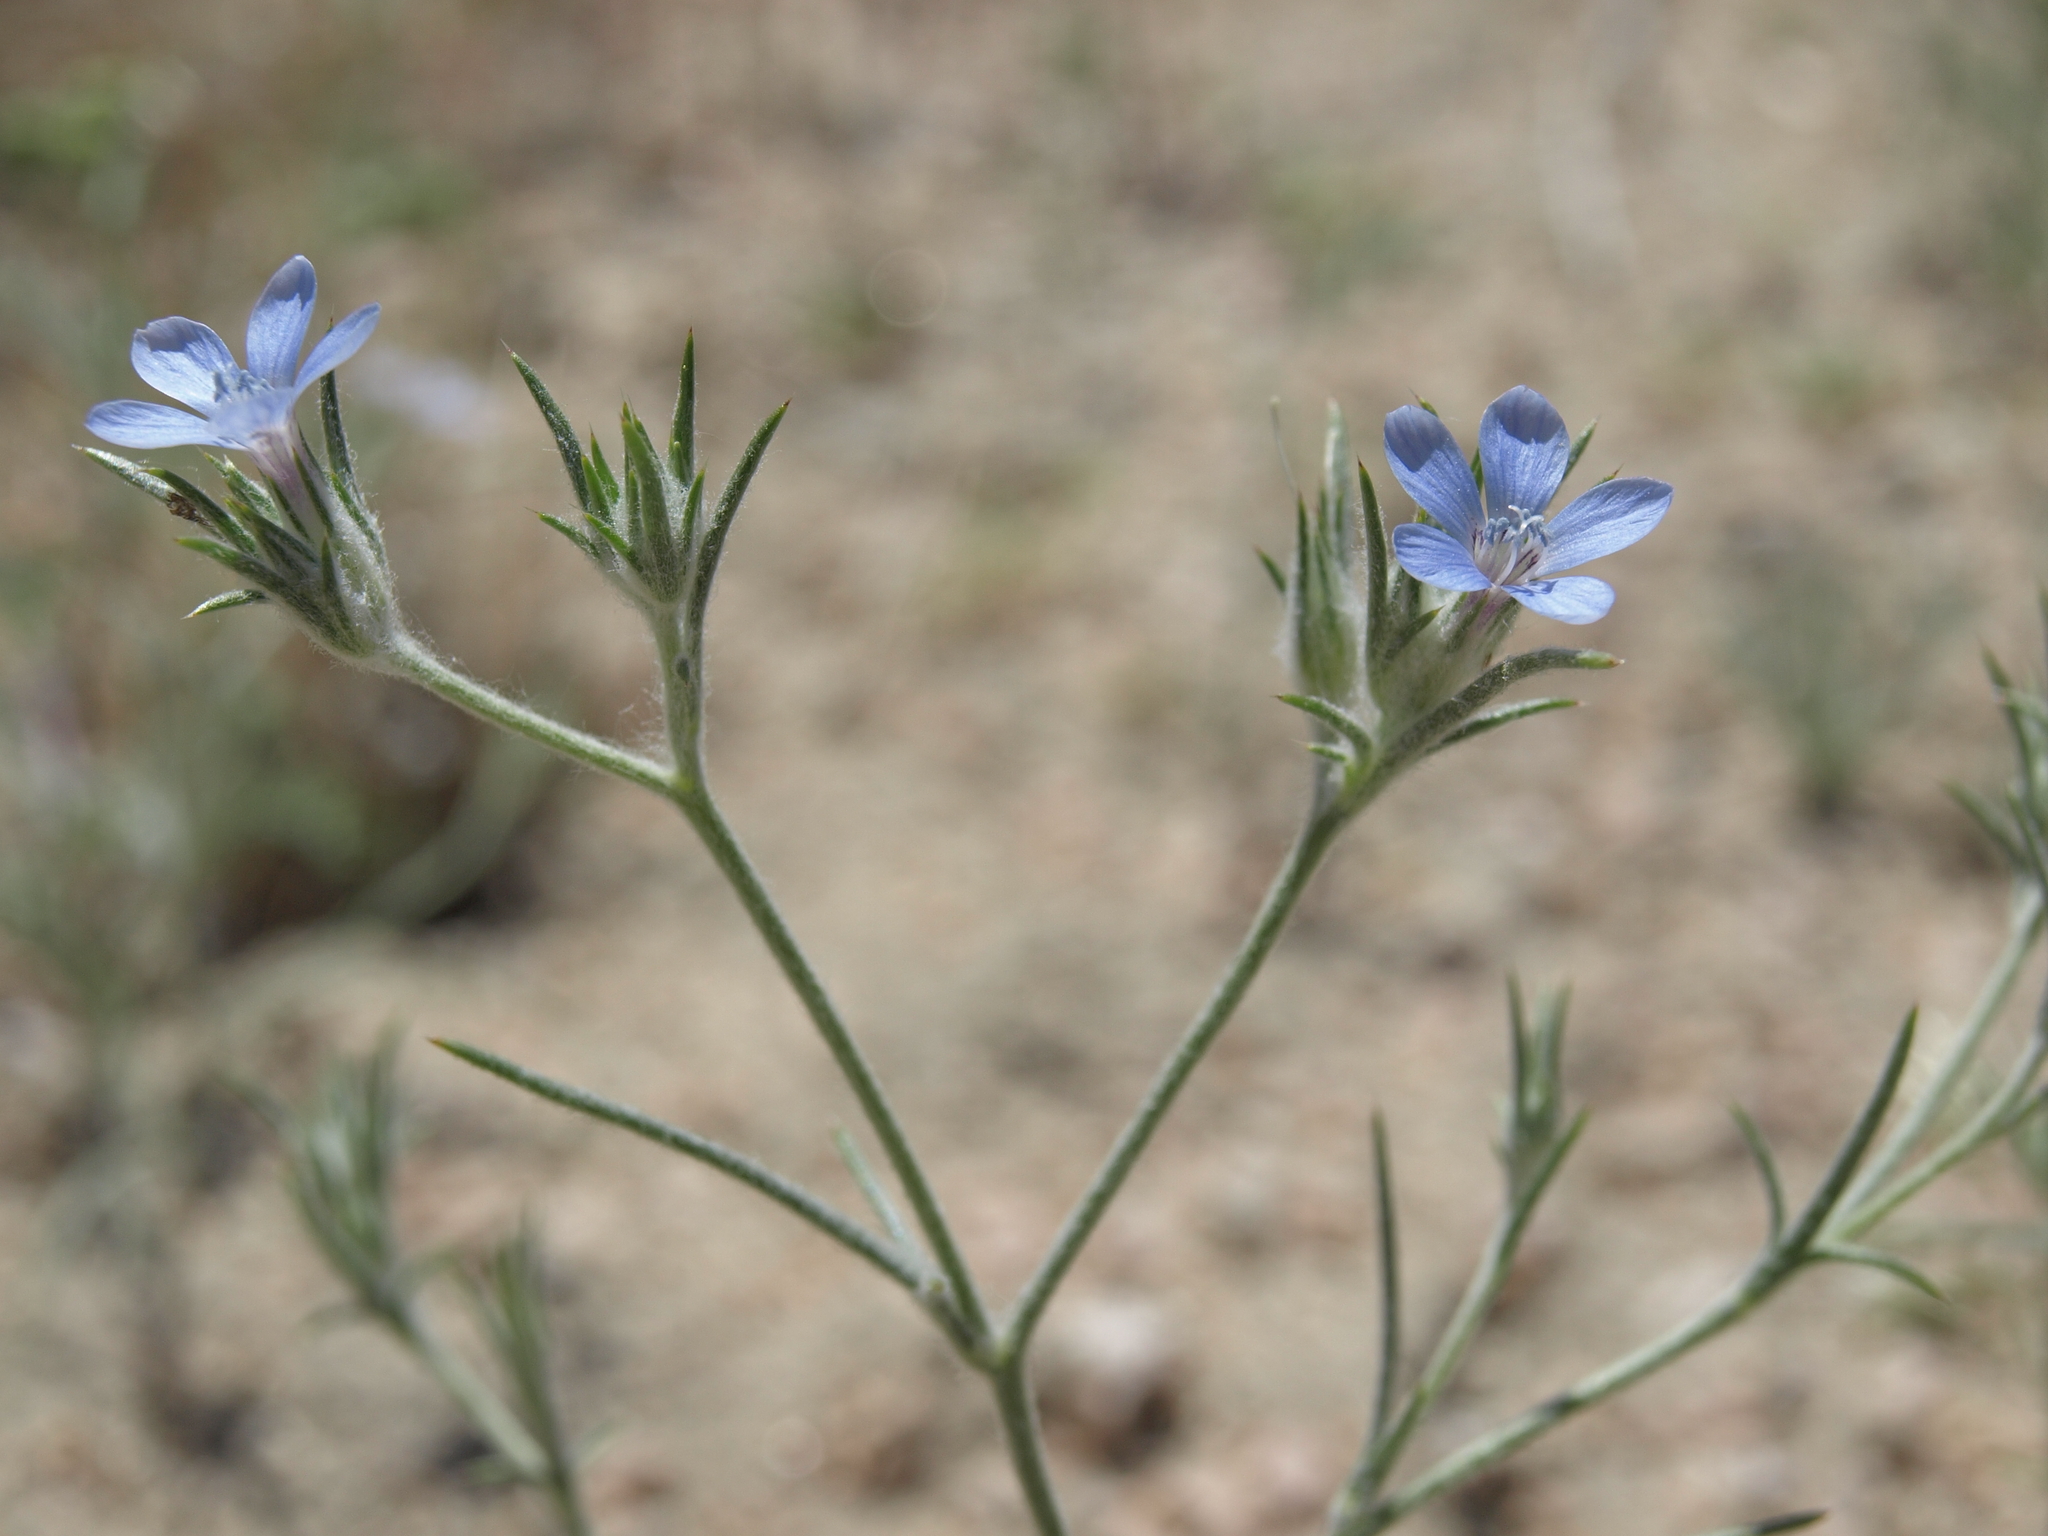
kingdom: Plantae
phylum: Tracheophyta
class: Magnoliopsida
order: Ericales
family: Polemoniaceae
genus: Eriastrum
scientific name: Eriastrum wilcoxii
